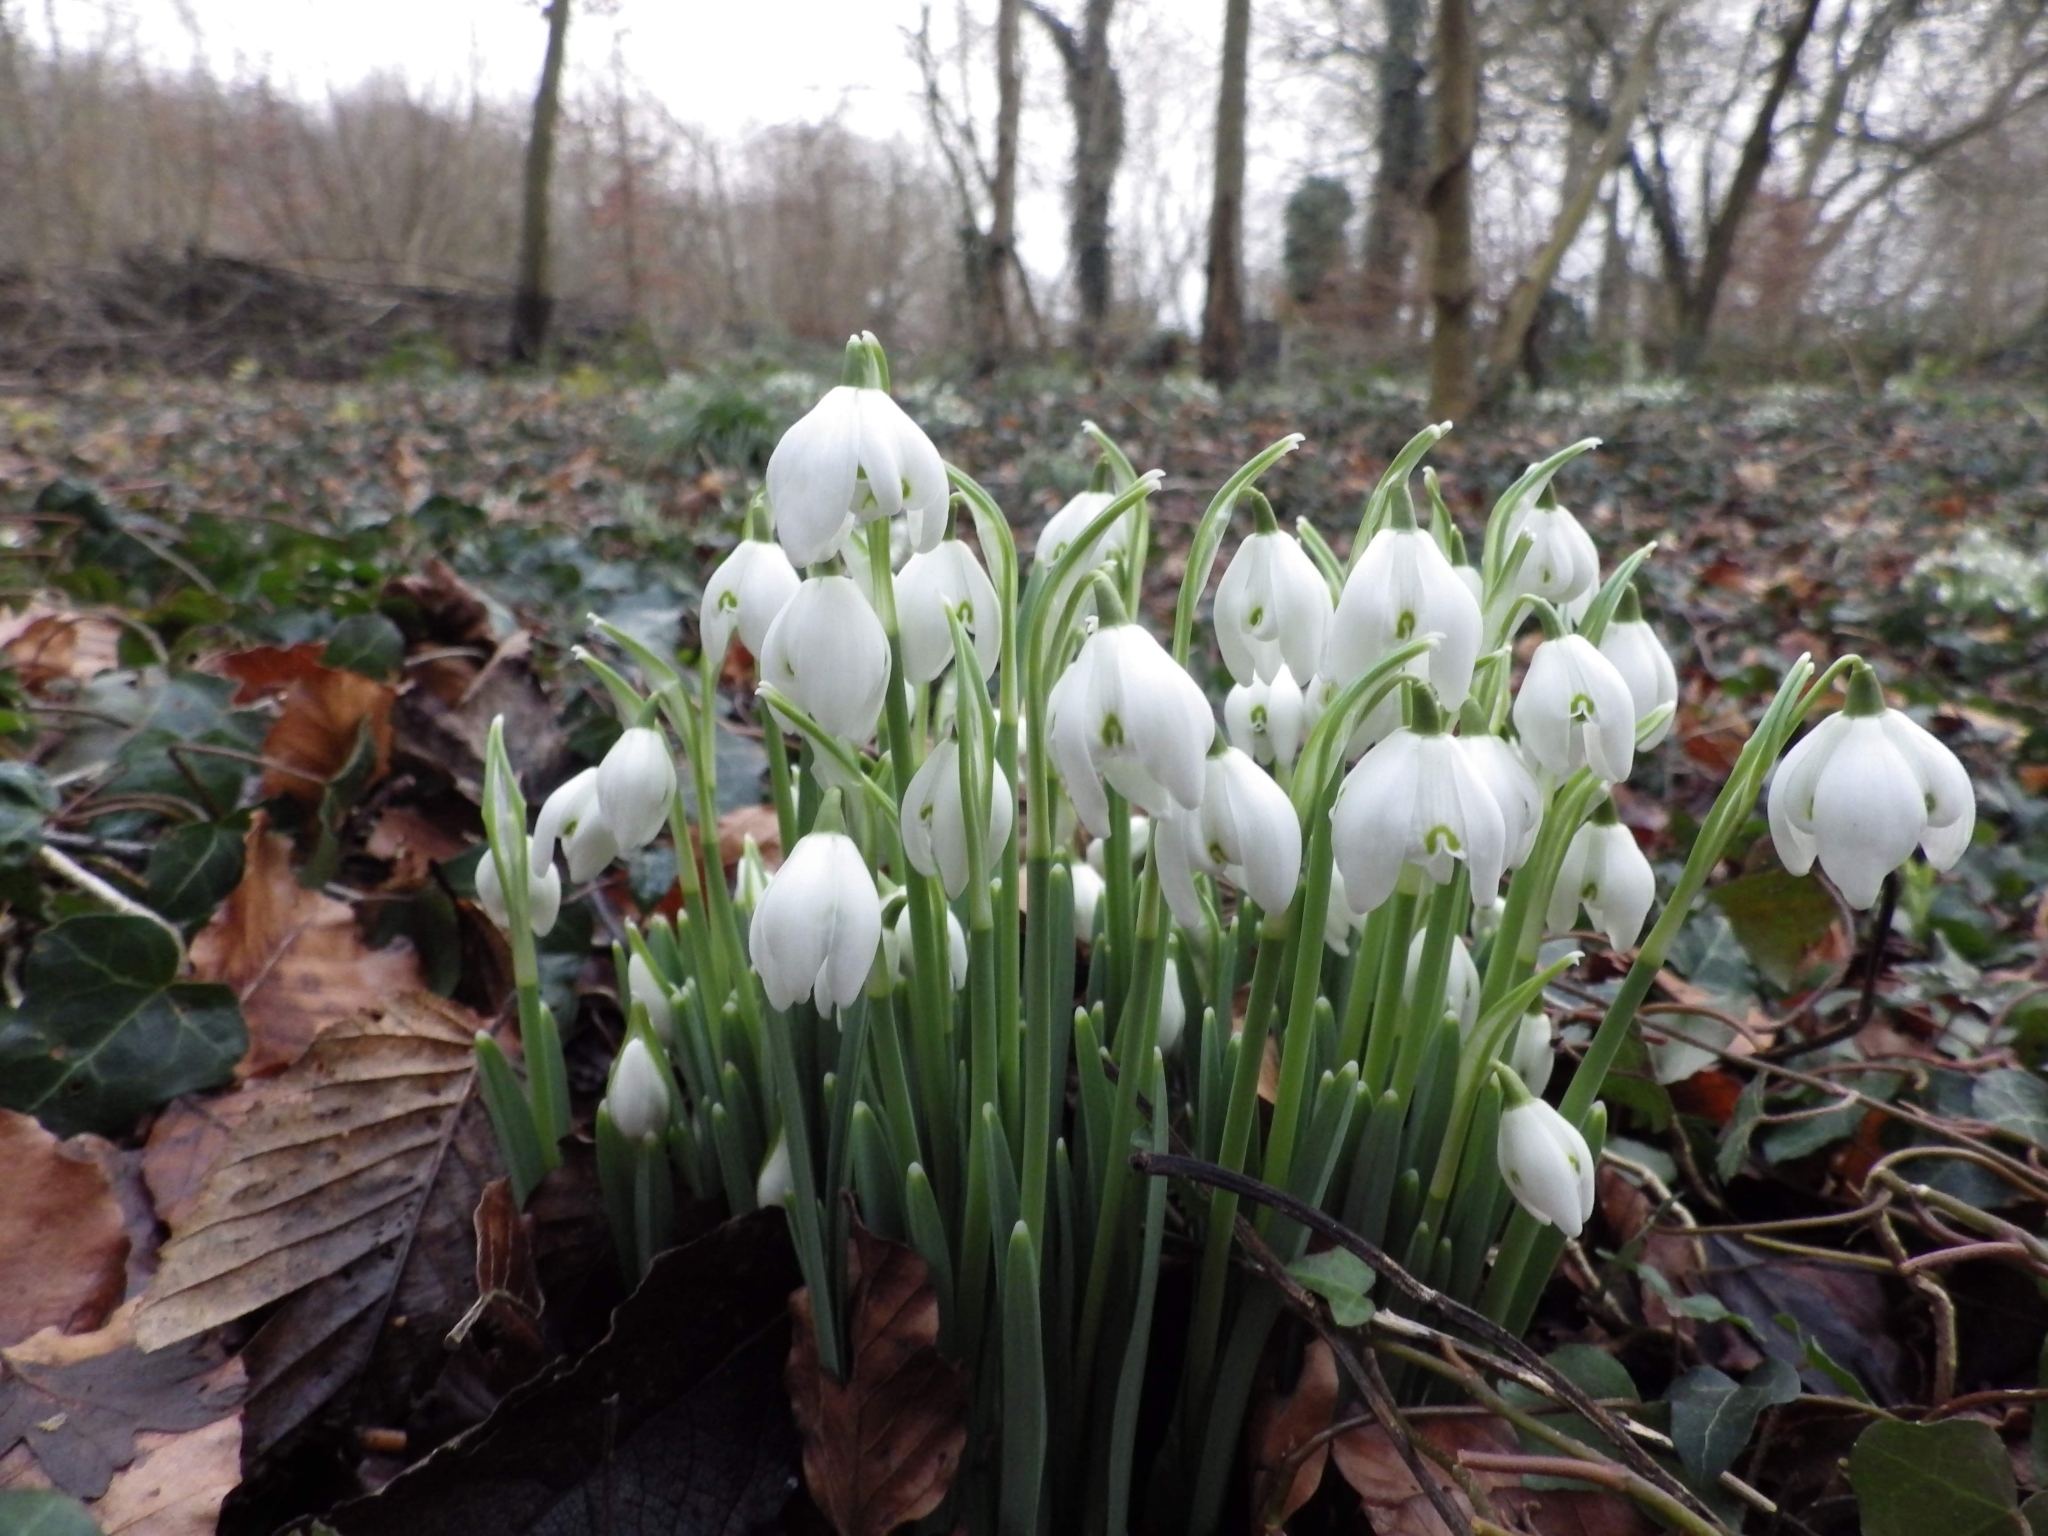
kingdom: Plantae
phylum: Tracheophyta
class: Liliopsida
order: Asparagales
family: Amaryllidaceae
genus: Galanthus
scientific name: Galanthus nivalis
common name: Snowdrop
